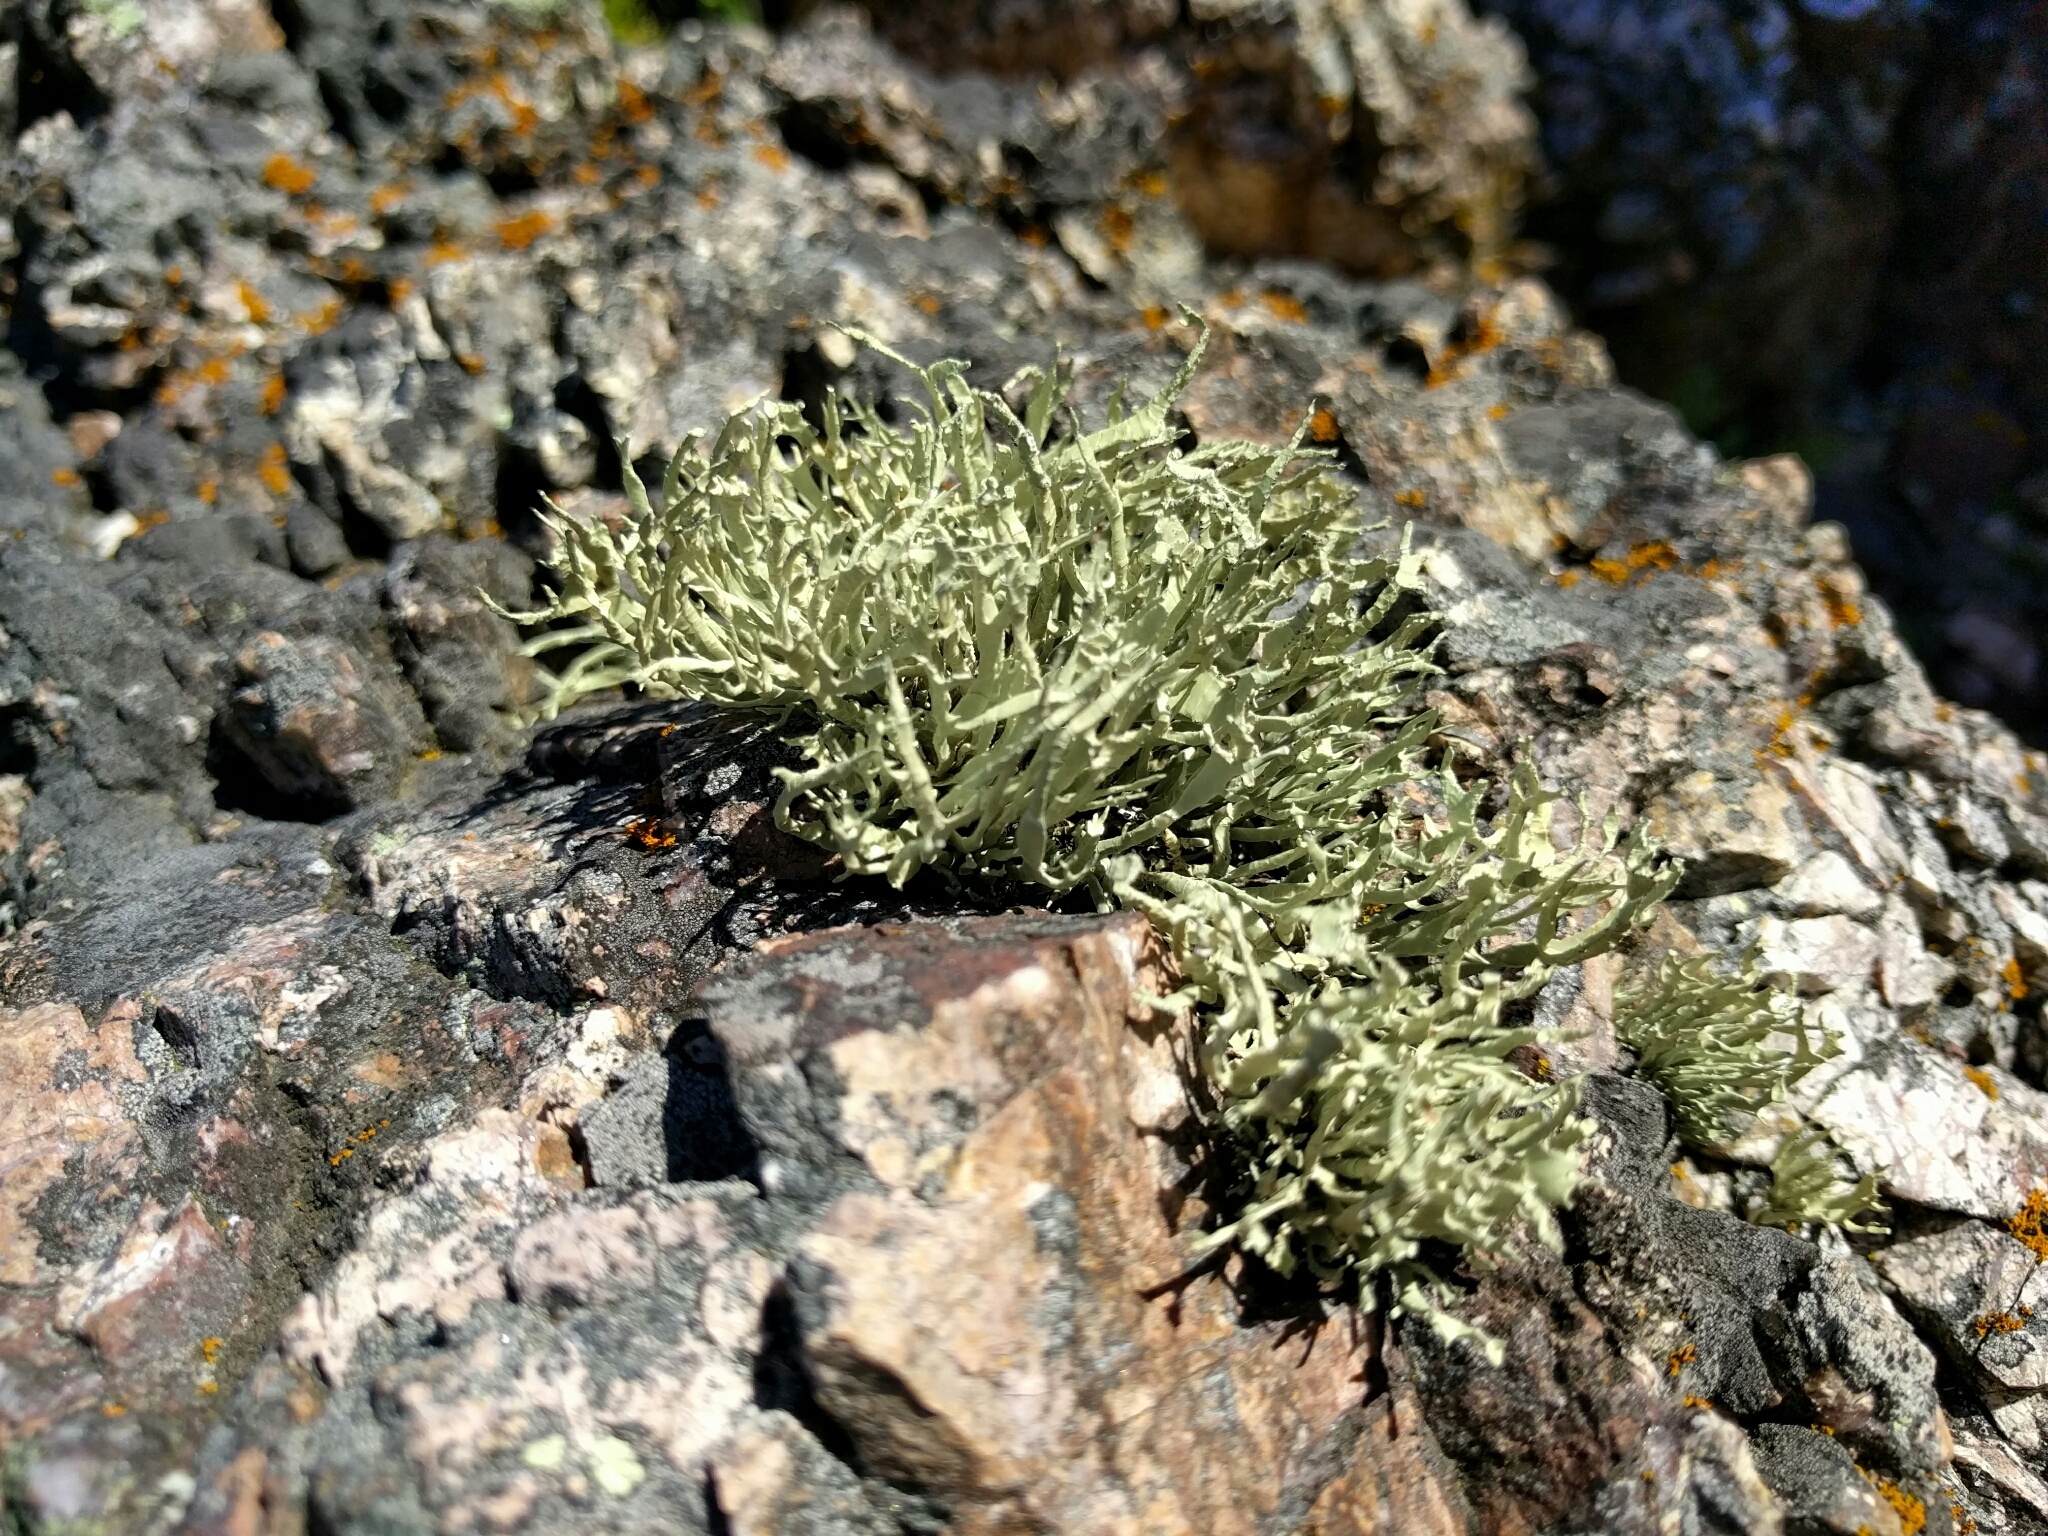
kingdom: Fungi
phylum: Ascomycota
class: Lecanoromycetes
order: Lecanorales
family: Ramalinaceae
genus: Niebla
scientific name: Niebla homalea
